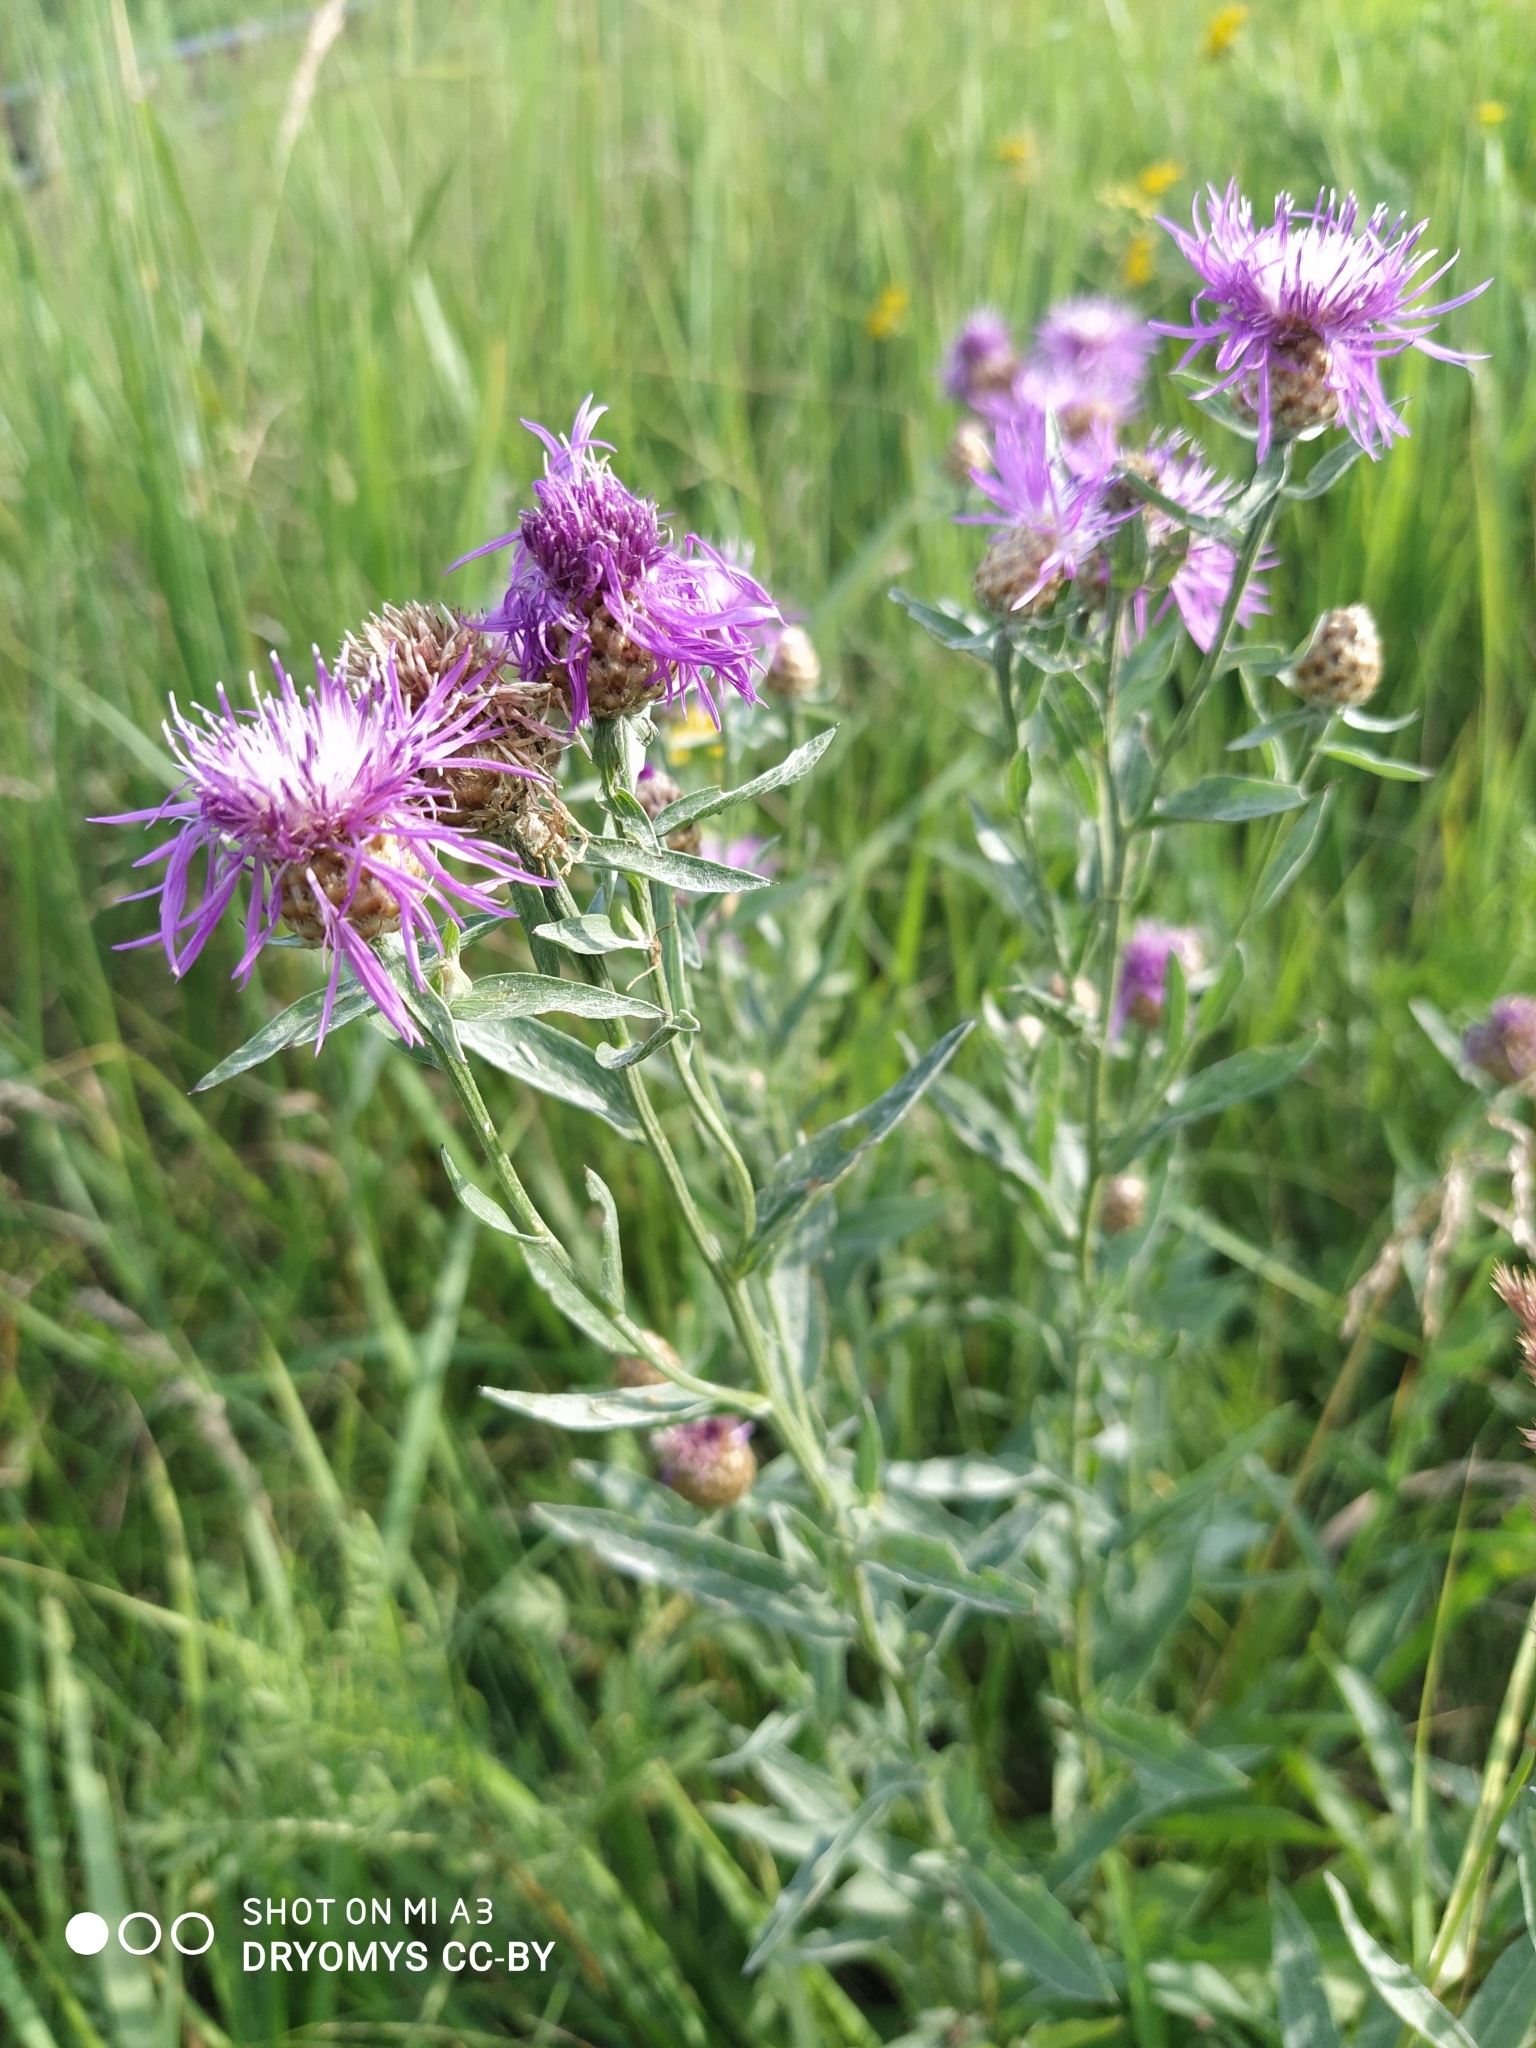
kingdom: Plantae
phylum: Tracheophyta
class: Magnoliopsida
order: Asterales
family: Asteraceae
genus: Centaurea
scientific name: Centaurea jacea
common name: Brown knapweed
